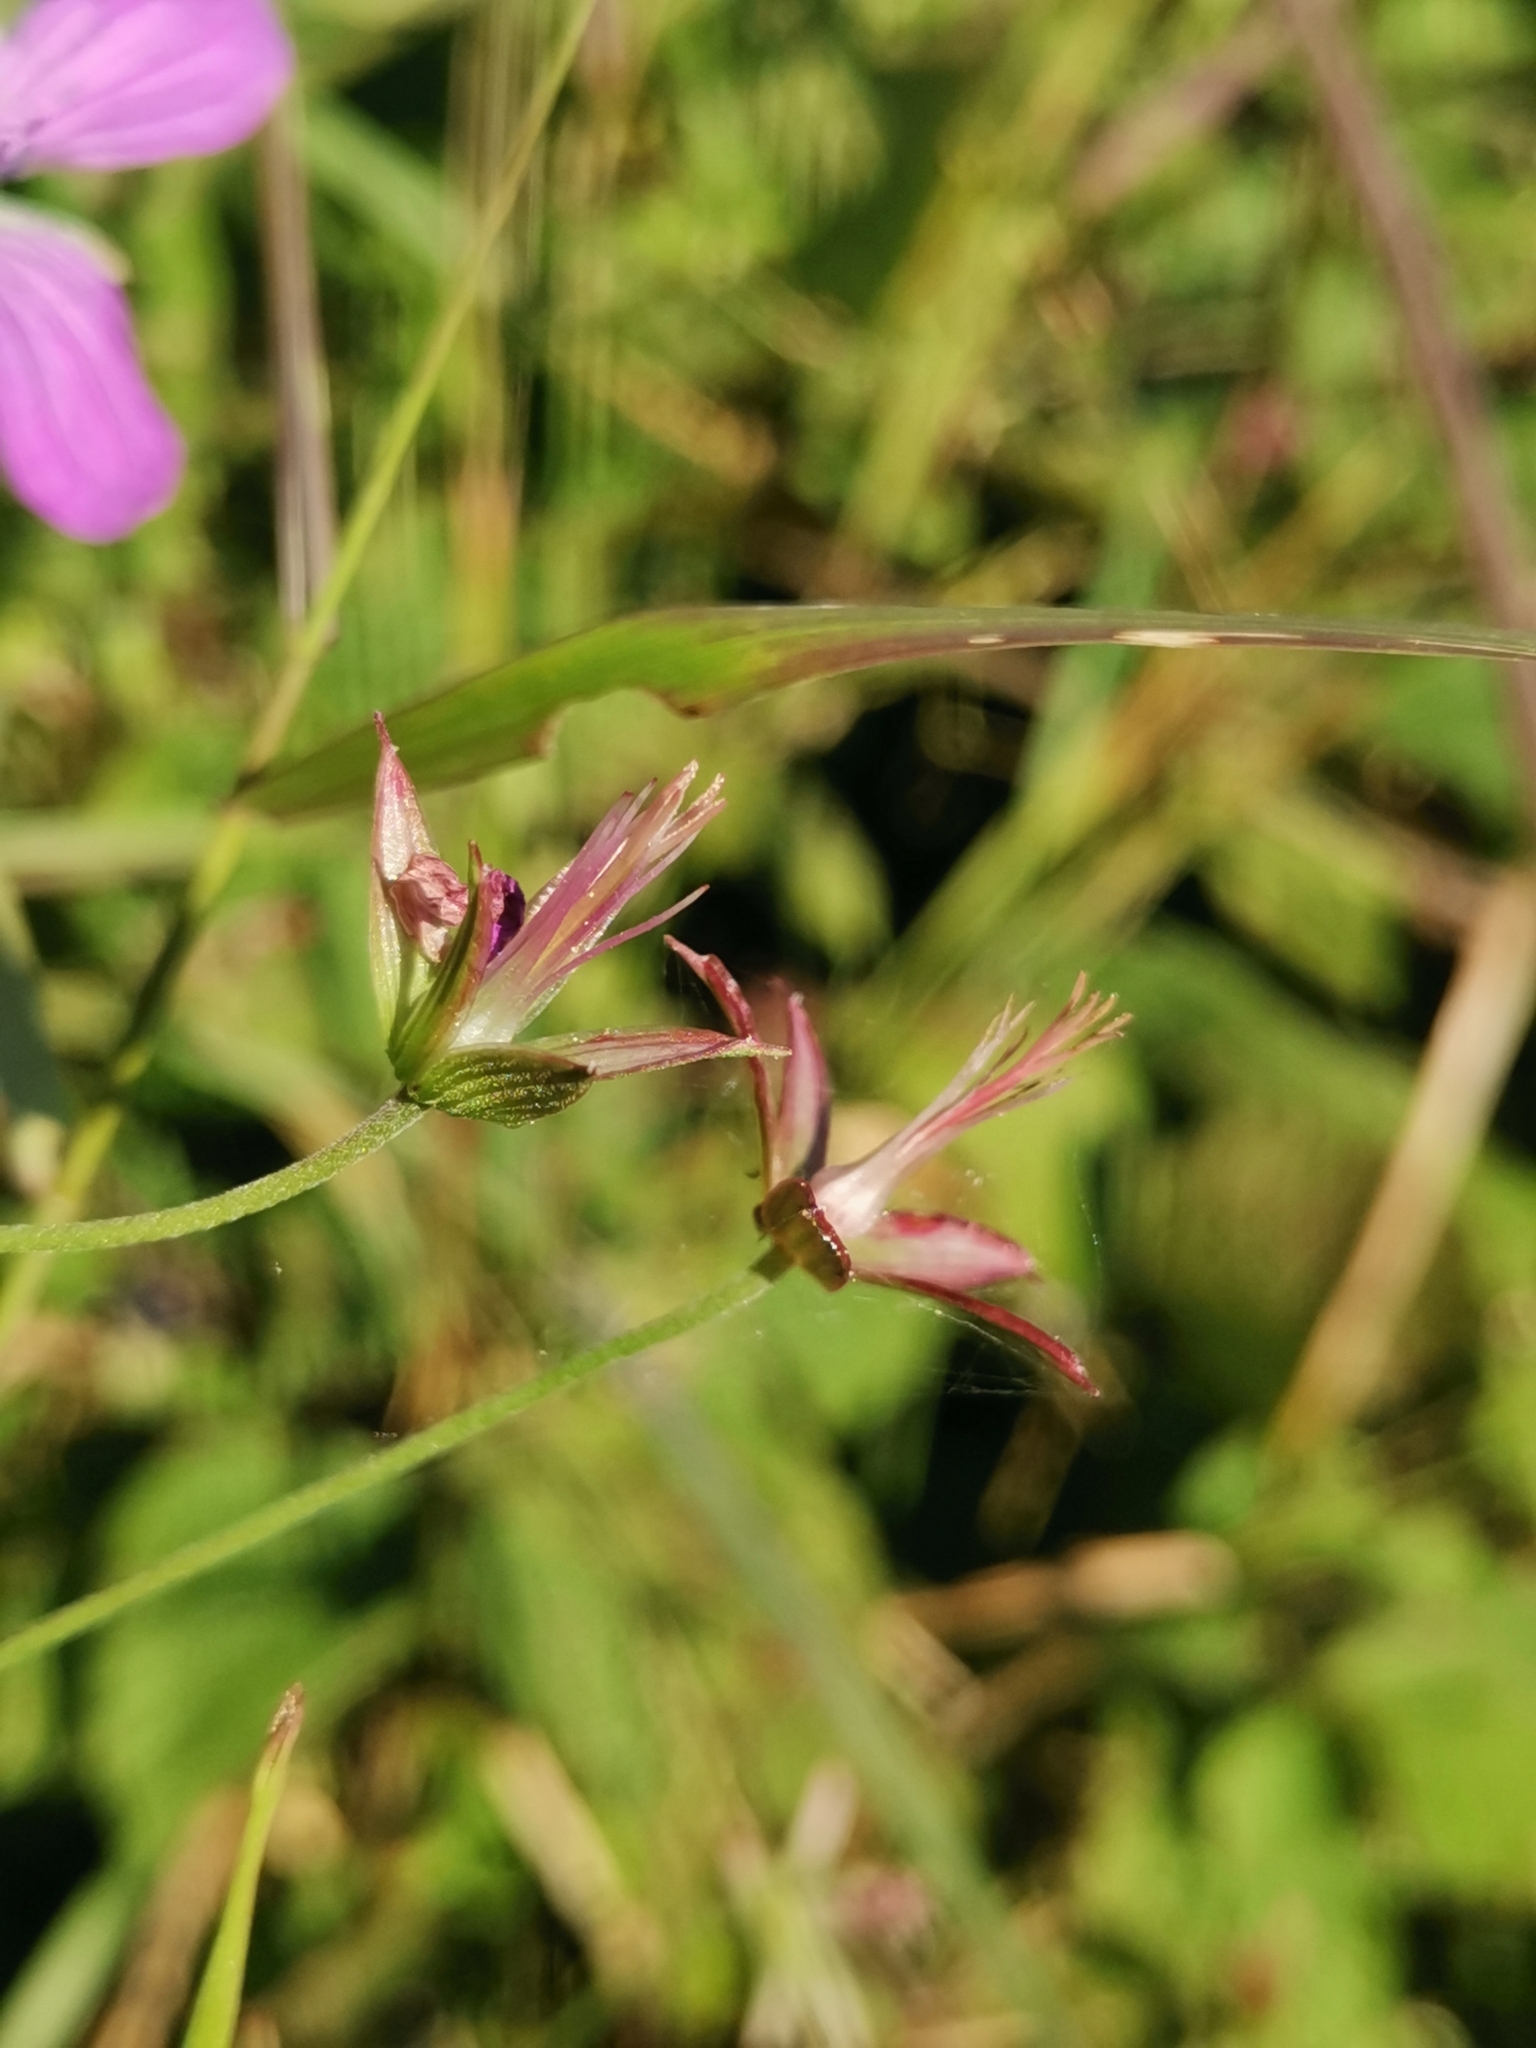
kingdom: Plantae
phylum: Tracheophyta
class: Magnoliopsida
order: Geraniales
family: Geraniaceae
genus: Geranium
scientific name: Geranium palustre
